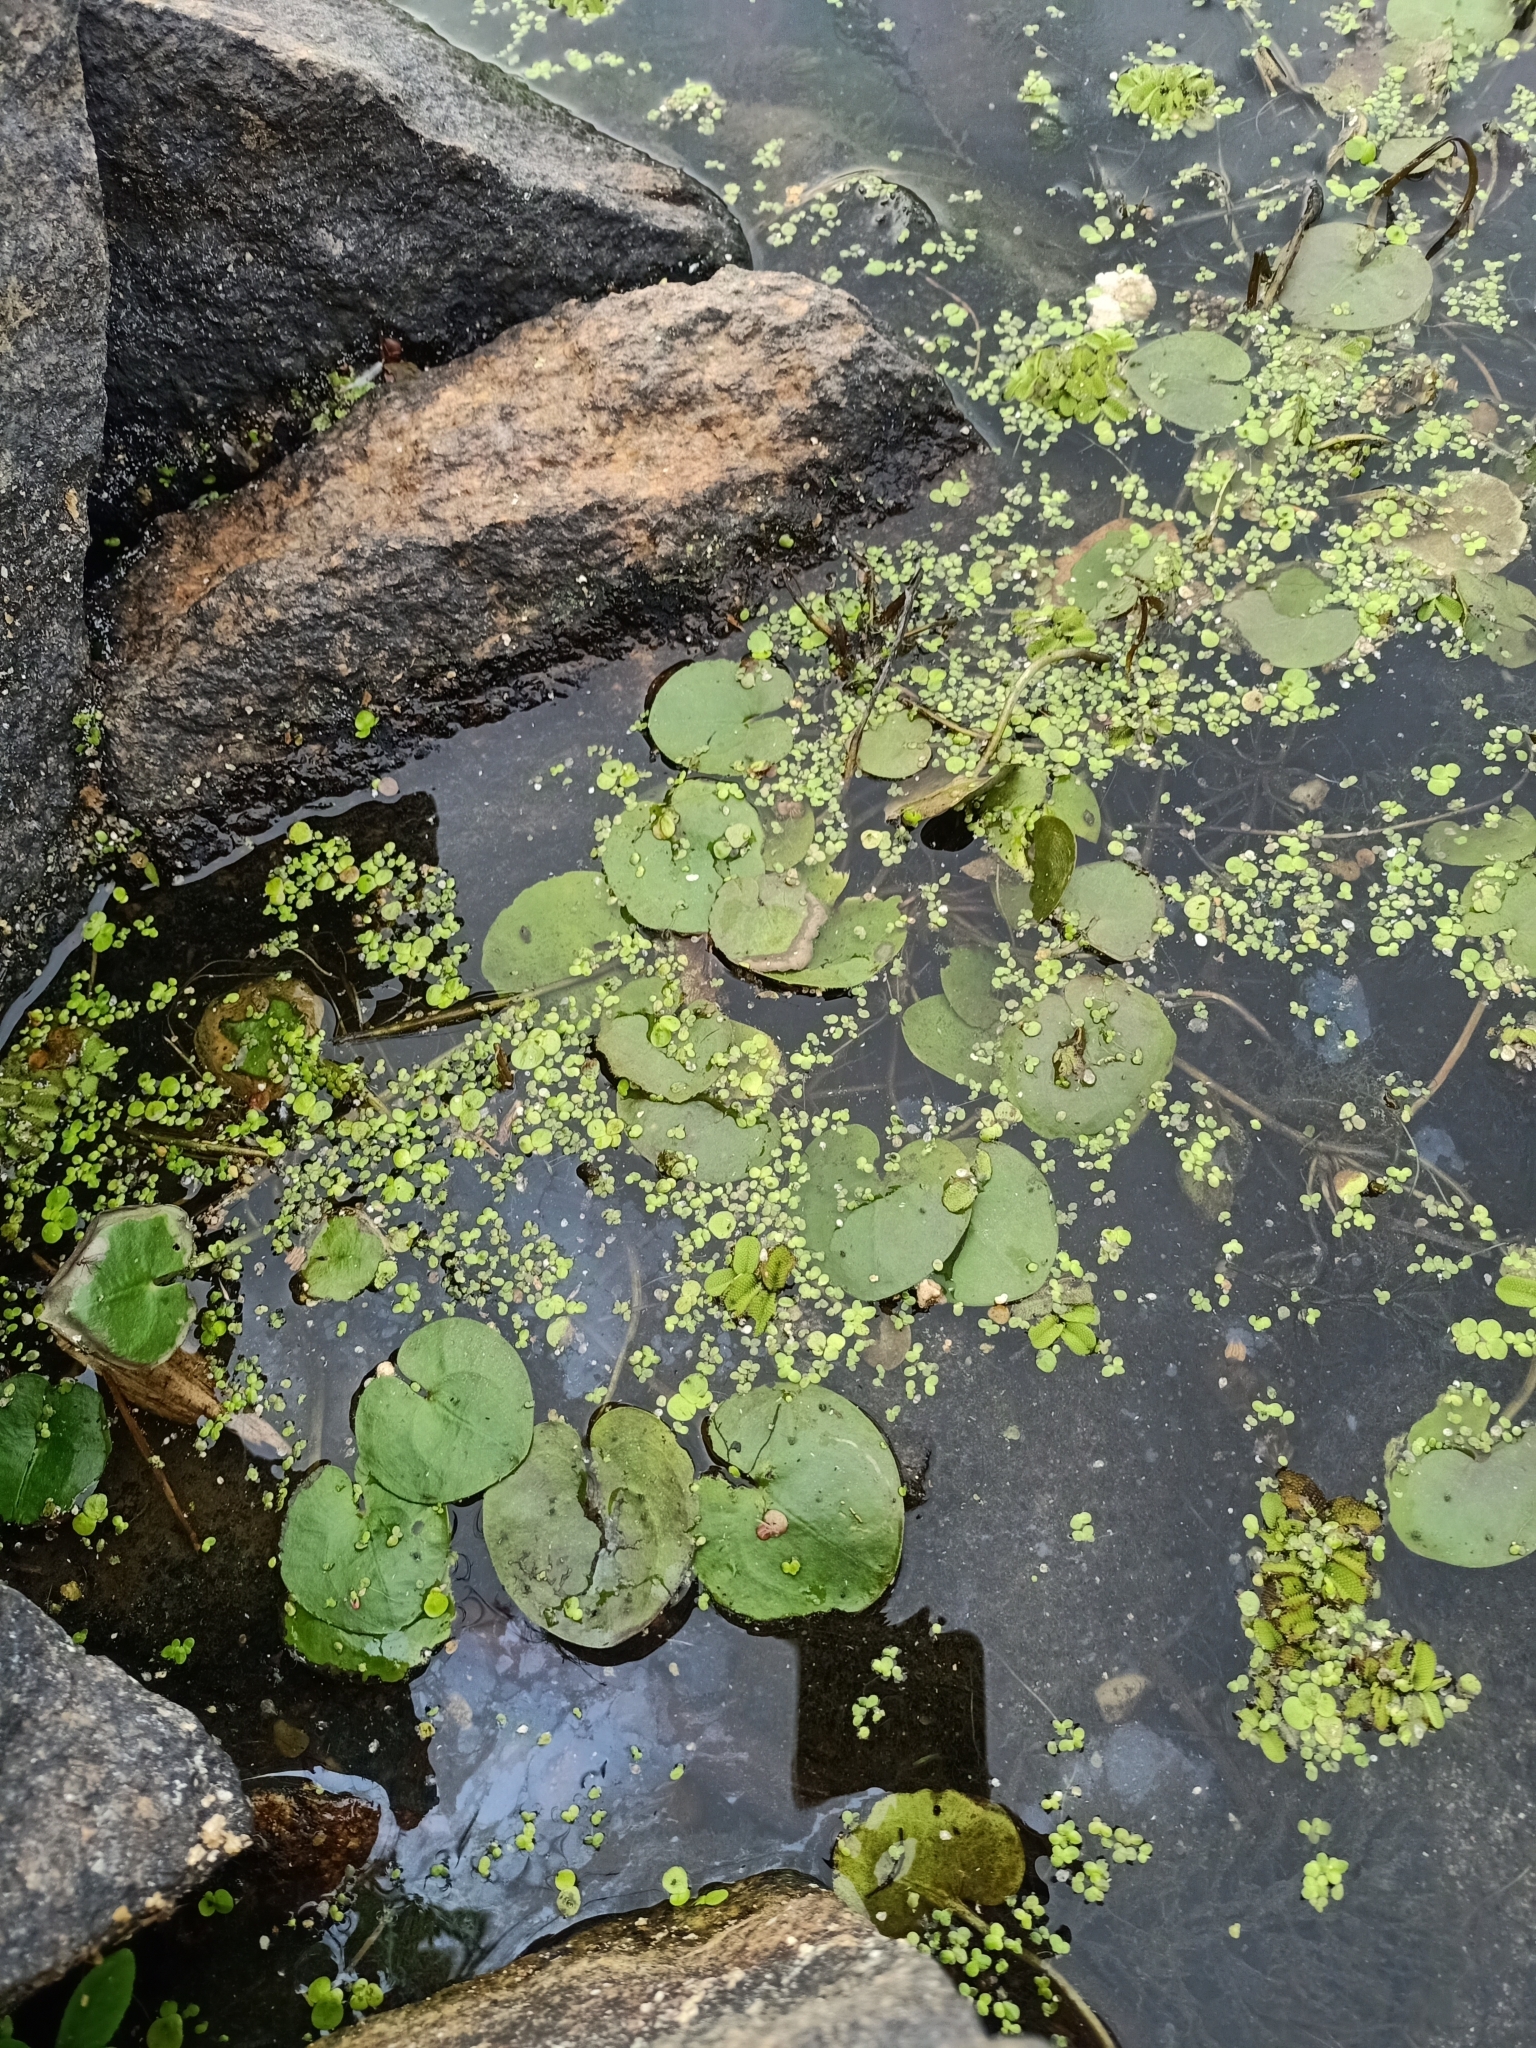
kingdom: Plantae
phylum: Tracheophyta
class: Liliopsida
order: Alismatales
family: Hydrocharitaceae
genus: Hydrocharis
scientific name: Hydrocharis morsus-ranae
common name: Frogbit
